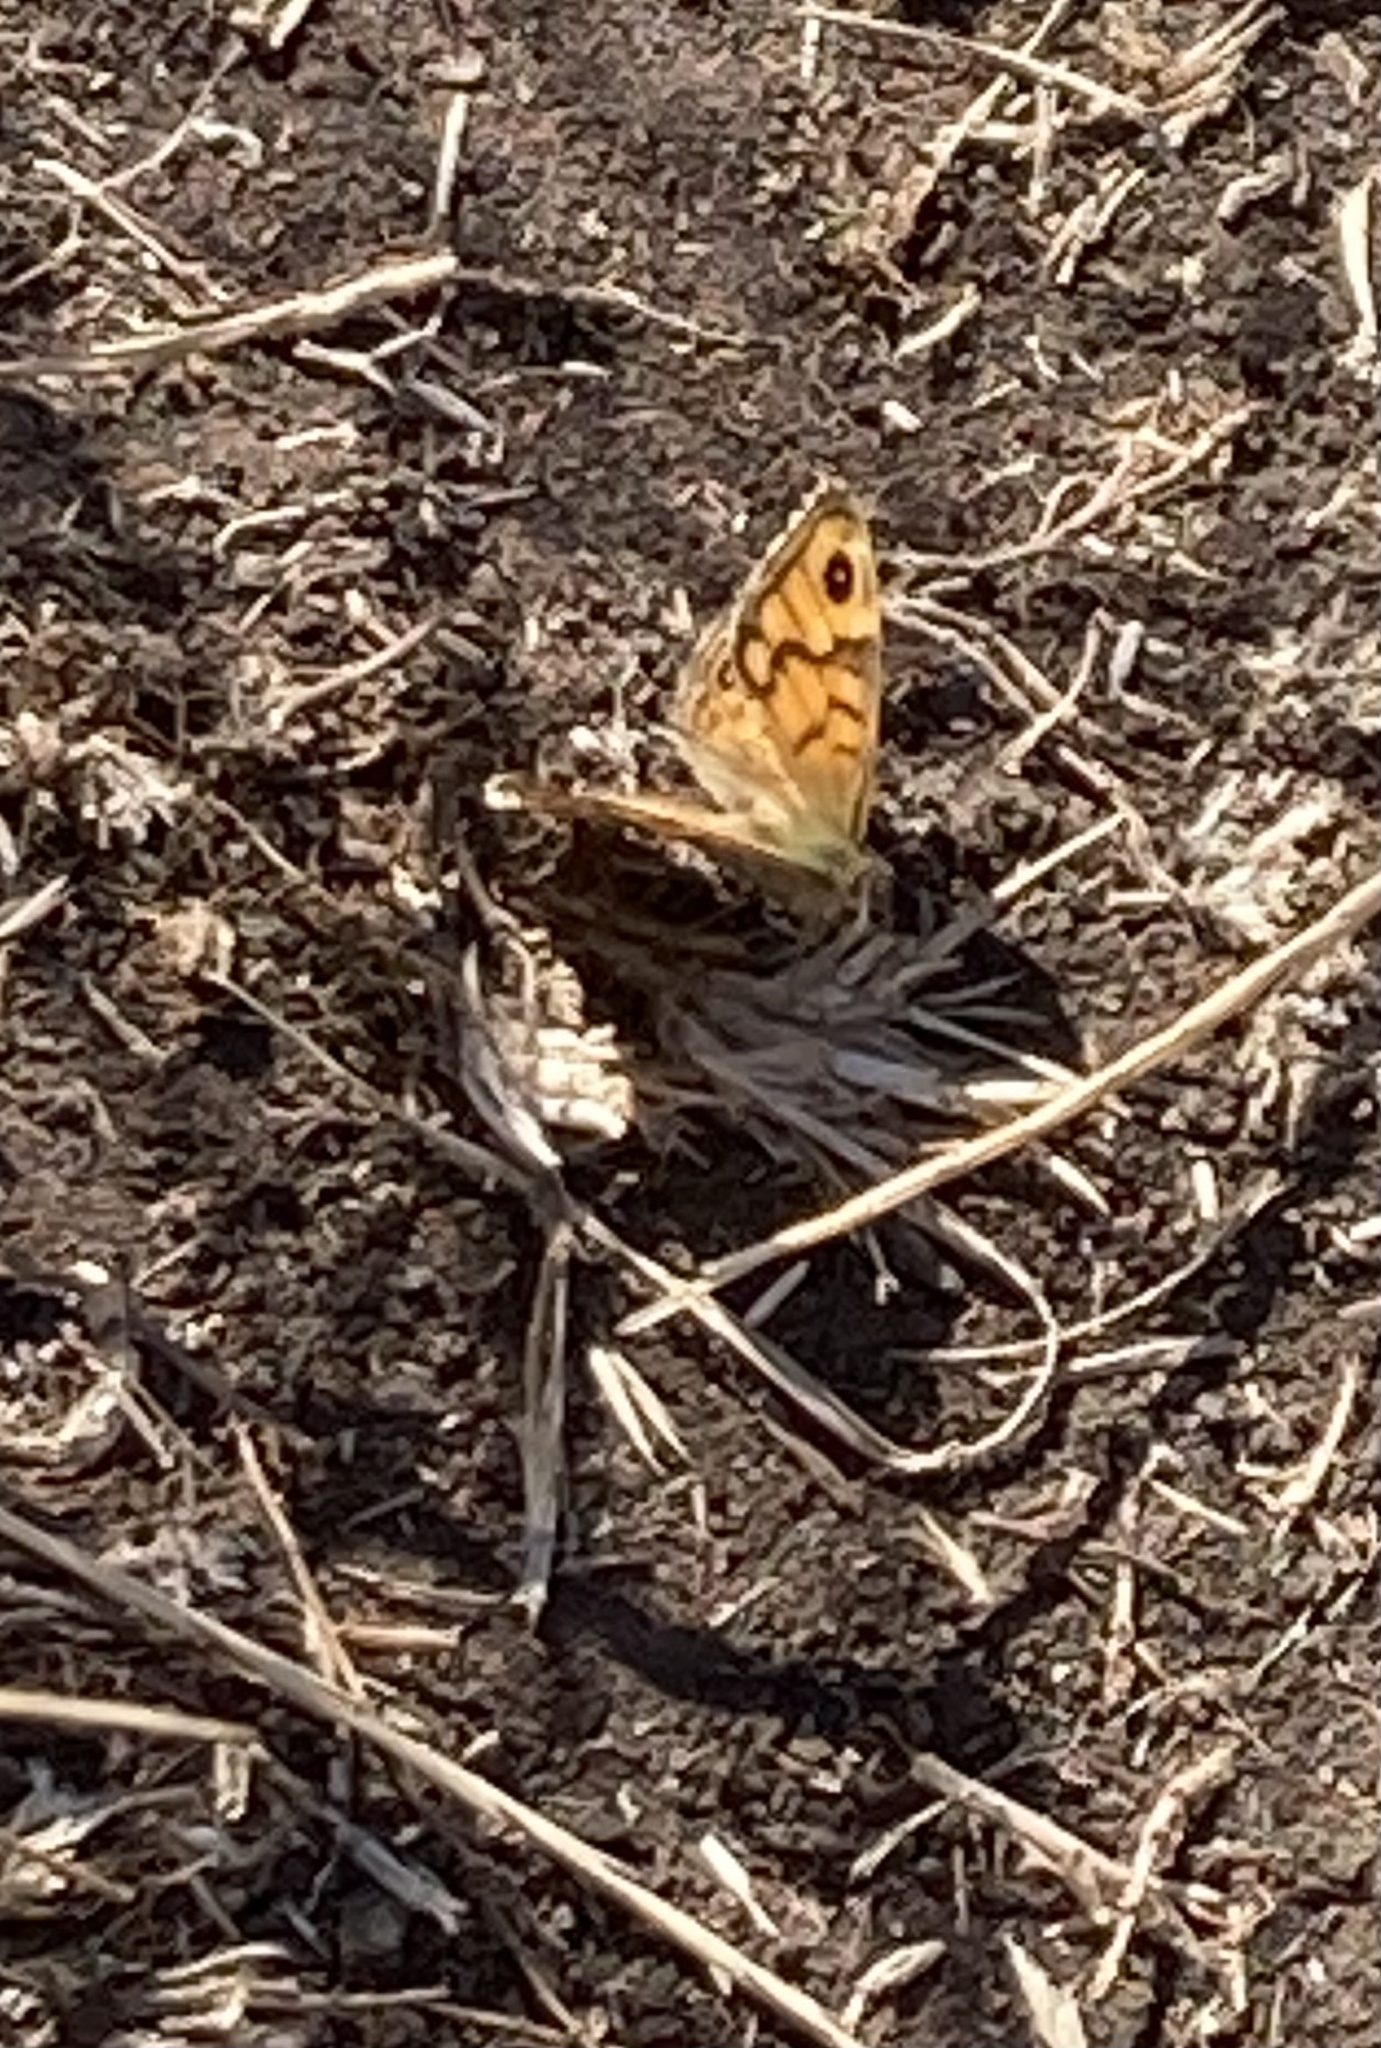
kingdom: Animalia
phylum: Arthropoda
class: Insecta
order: Lepidoptera
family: Nymphalidae
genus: Pararge
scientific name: Pararge Lasiommata megera
